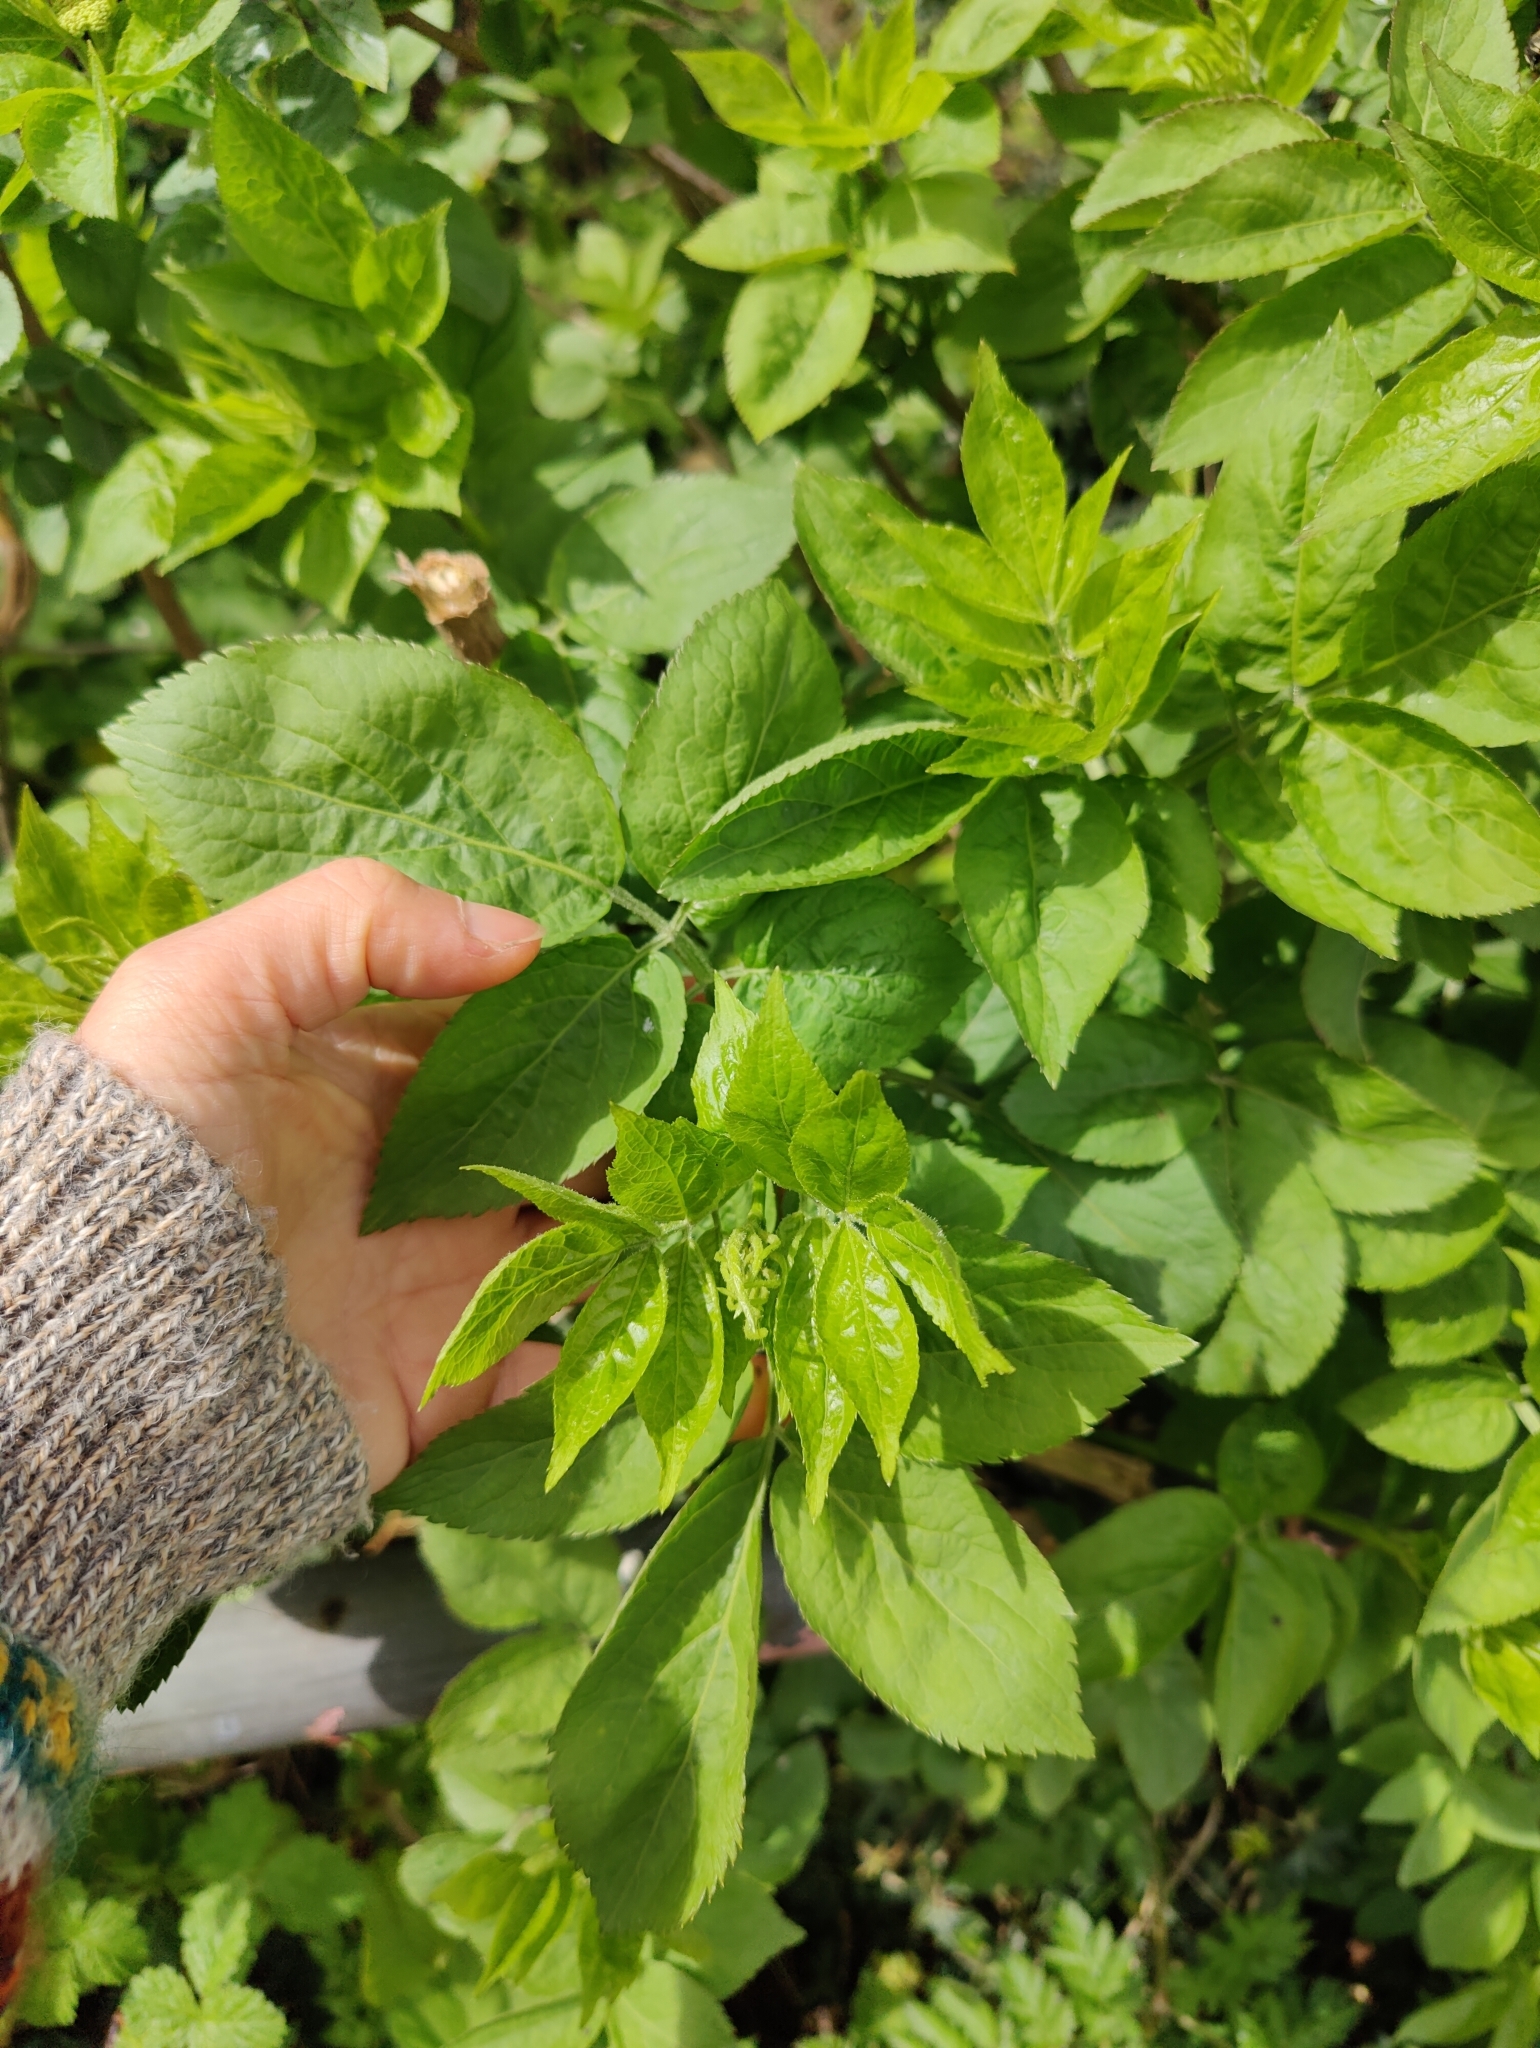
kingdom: Plantae
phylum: Tracheophyta
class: Magnoliopsida
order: Dipsacales
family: Viburnaceae
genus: Sambucus
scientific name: Sambucus nigra
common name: Elder
